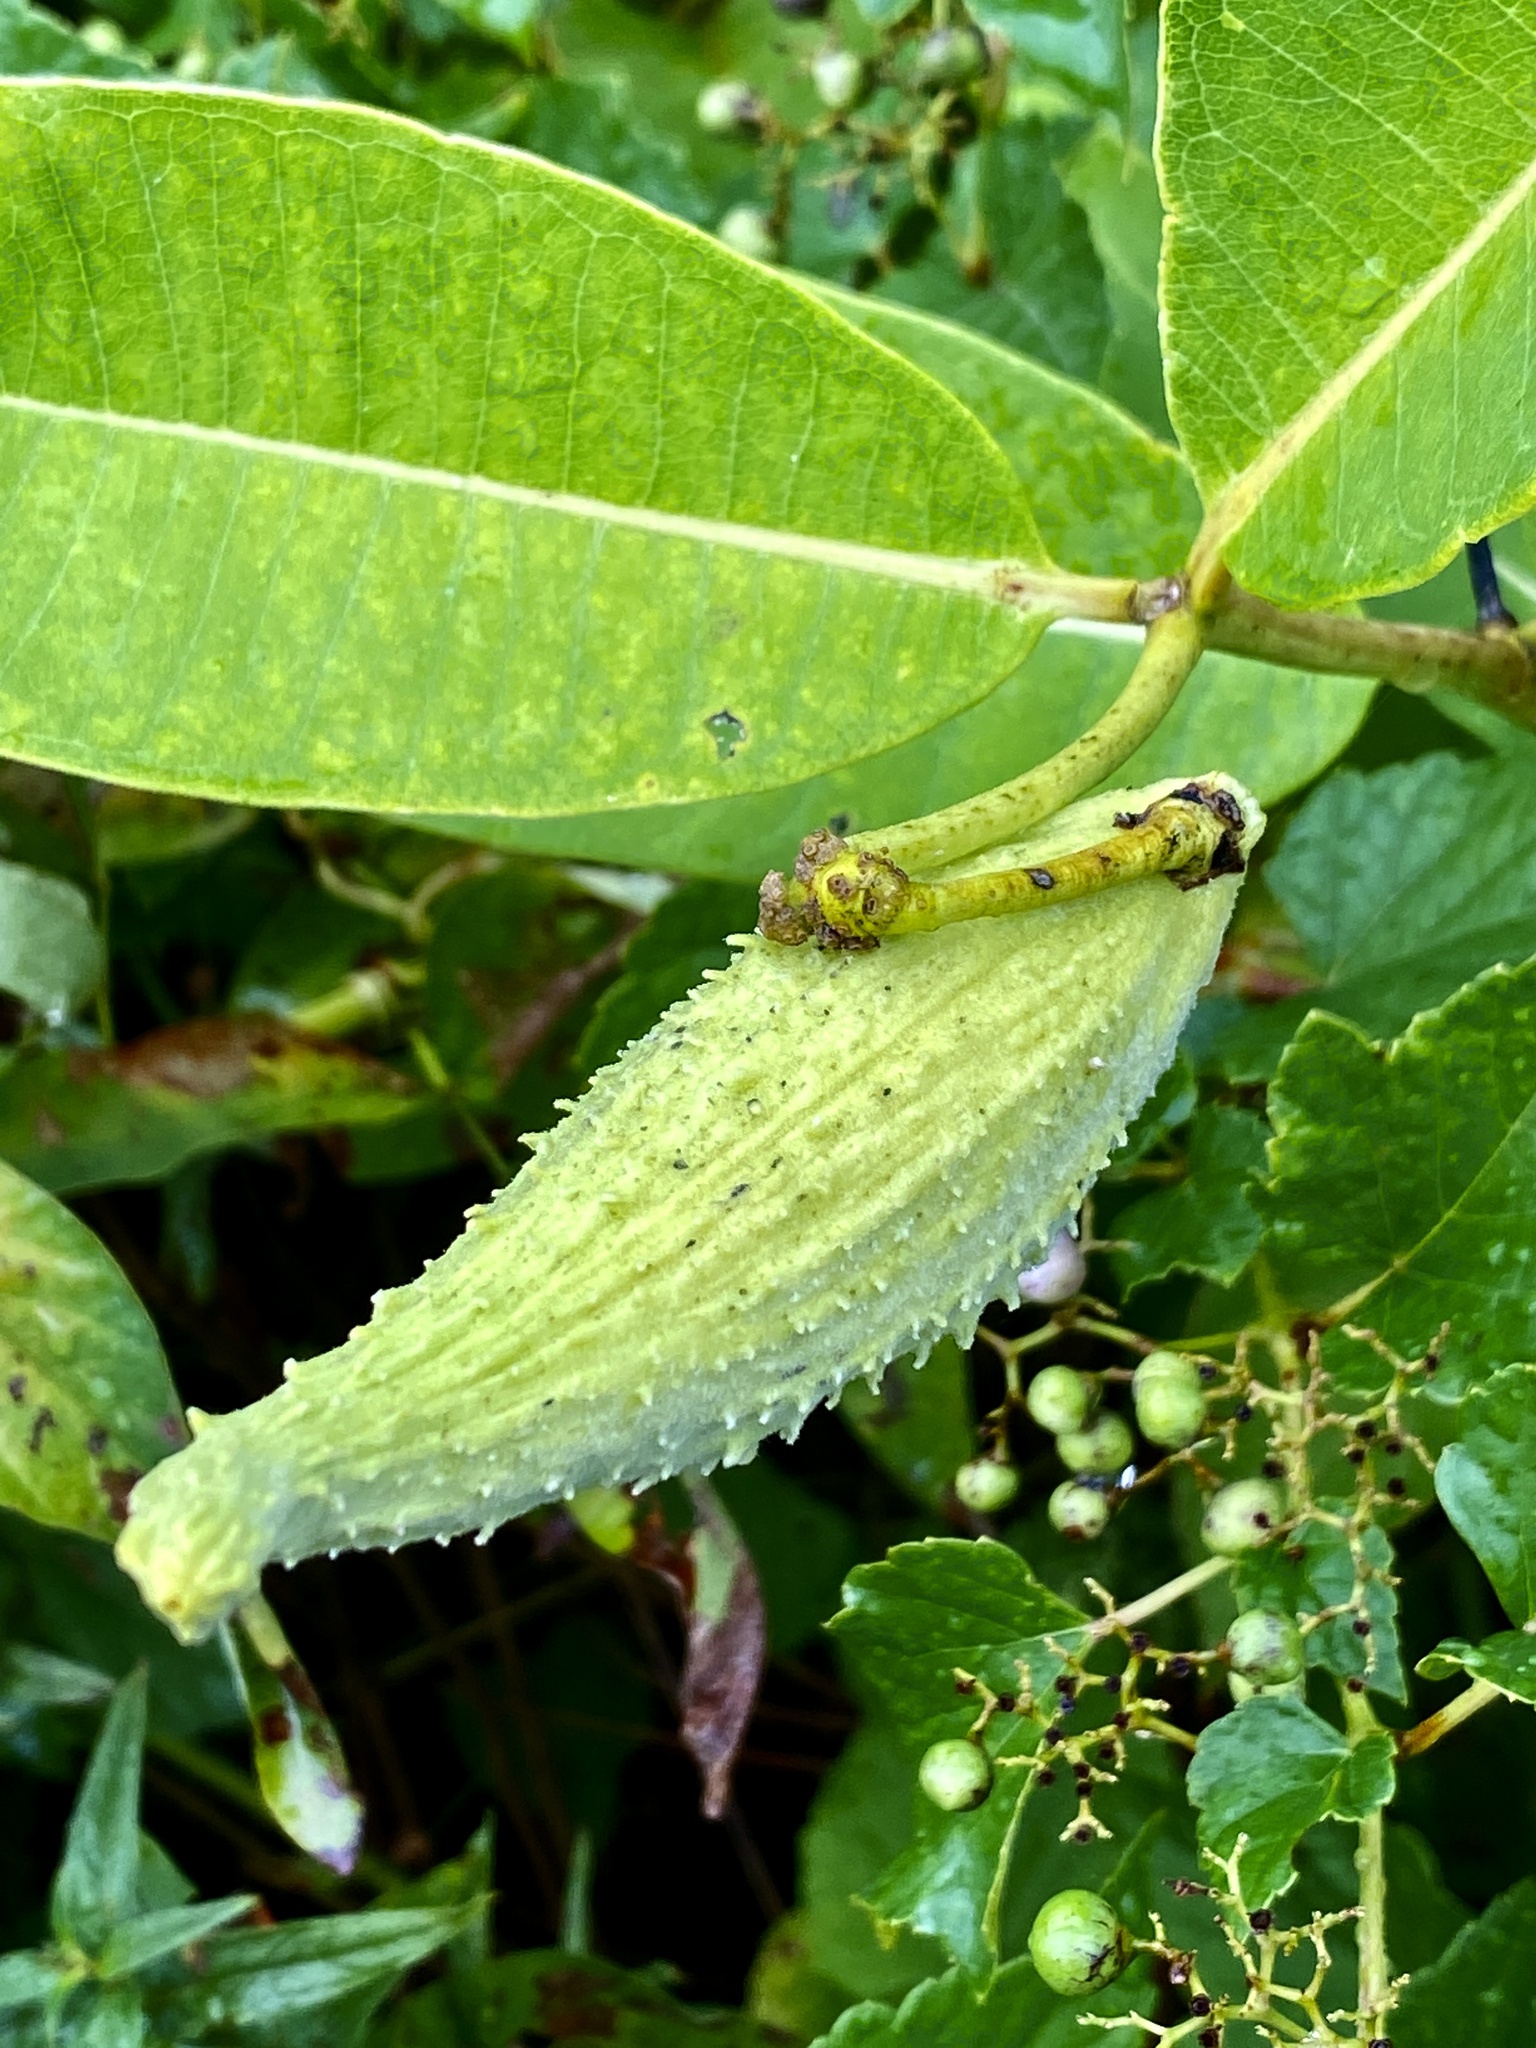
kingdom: Plantae
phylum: Tracheophyta
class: Magnoliopsida
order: Gentianales
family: Apocynaceae
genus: Asclepias
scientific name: Asclepias syriaca
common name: Common milkweed
